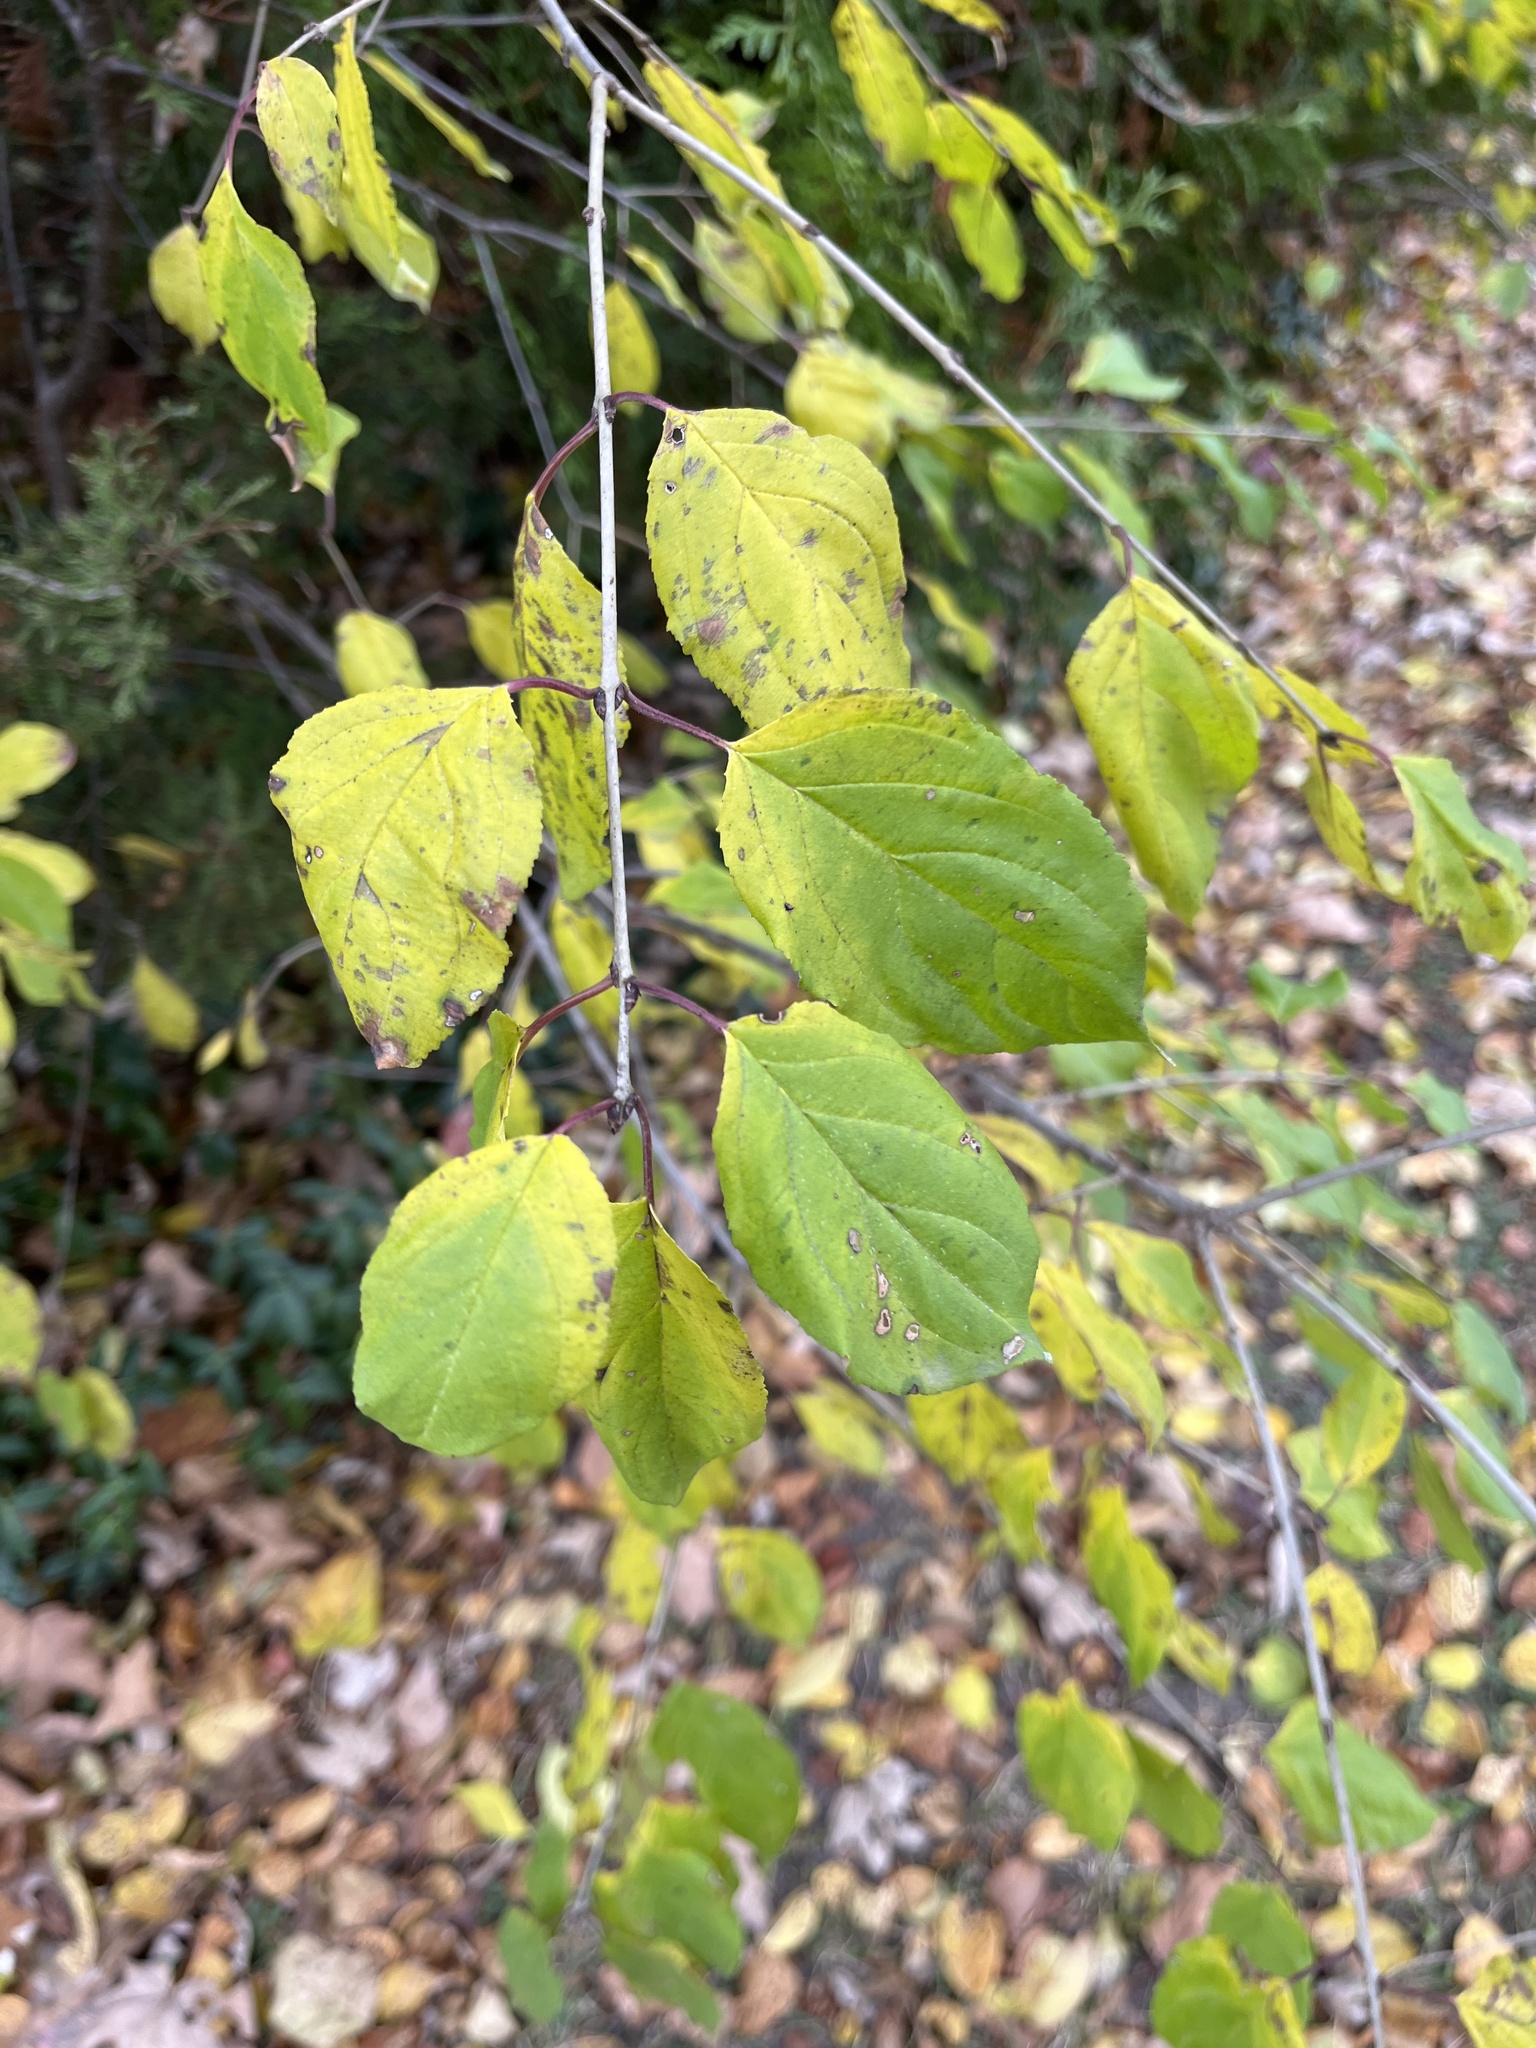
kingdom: Plantae
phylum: Tracheophyta
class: Magnoliopsida
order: Rosales
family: Rhamnaceae
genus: Rhamnus
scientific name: Rhamnus cathartica
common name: Common buckthorn
